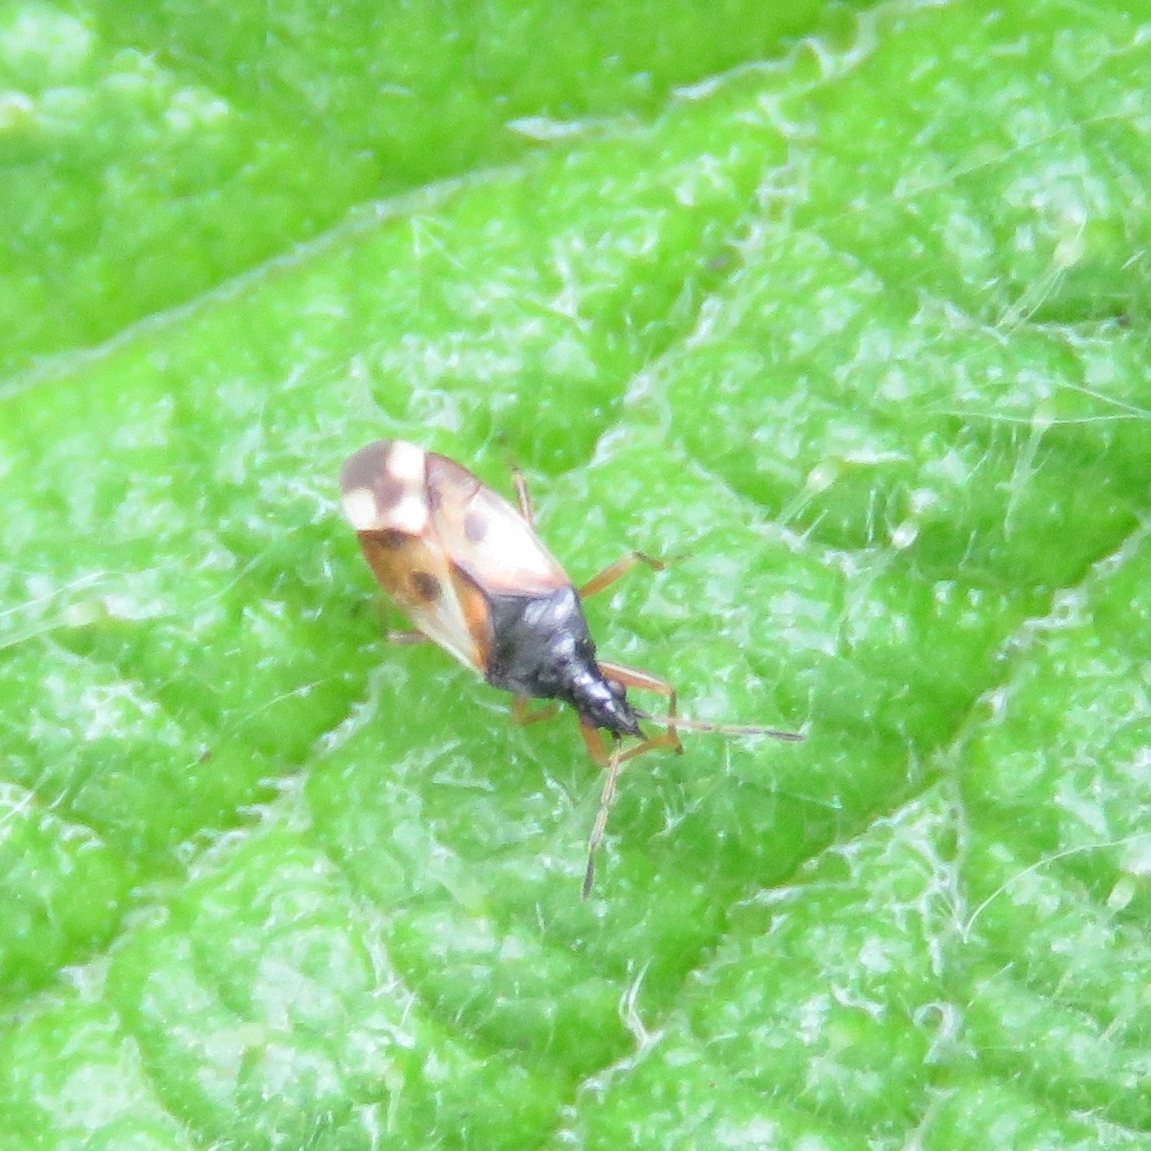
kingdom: Animalia
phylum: Arthropoda
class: Insecta
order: Hemiptera
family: Anthocoridae
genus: Anthocoris
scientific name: Anthocoris nemorum
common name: Minute pirate bug
